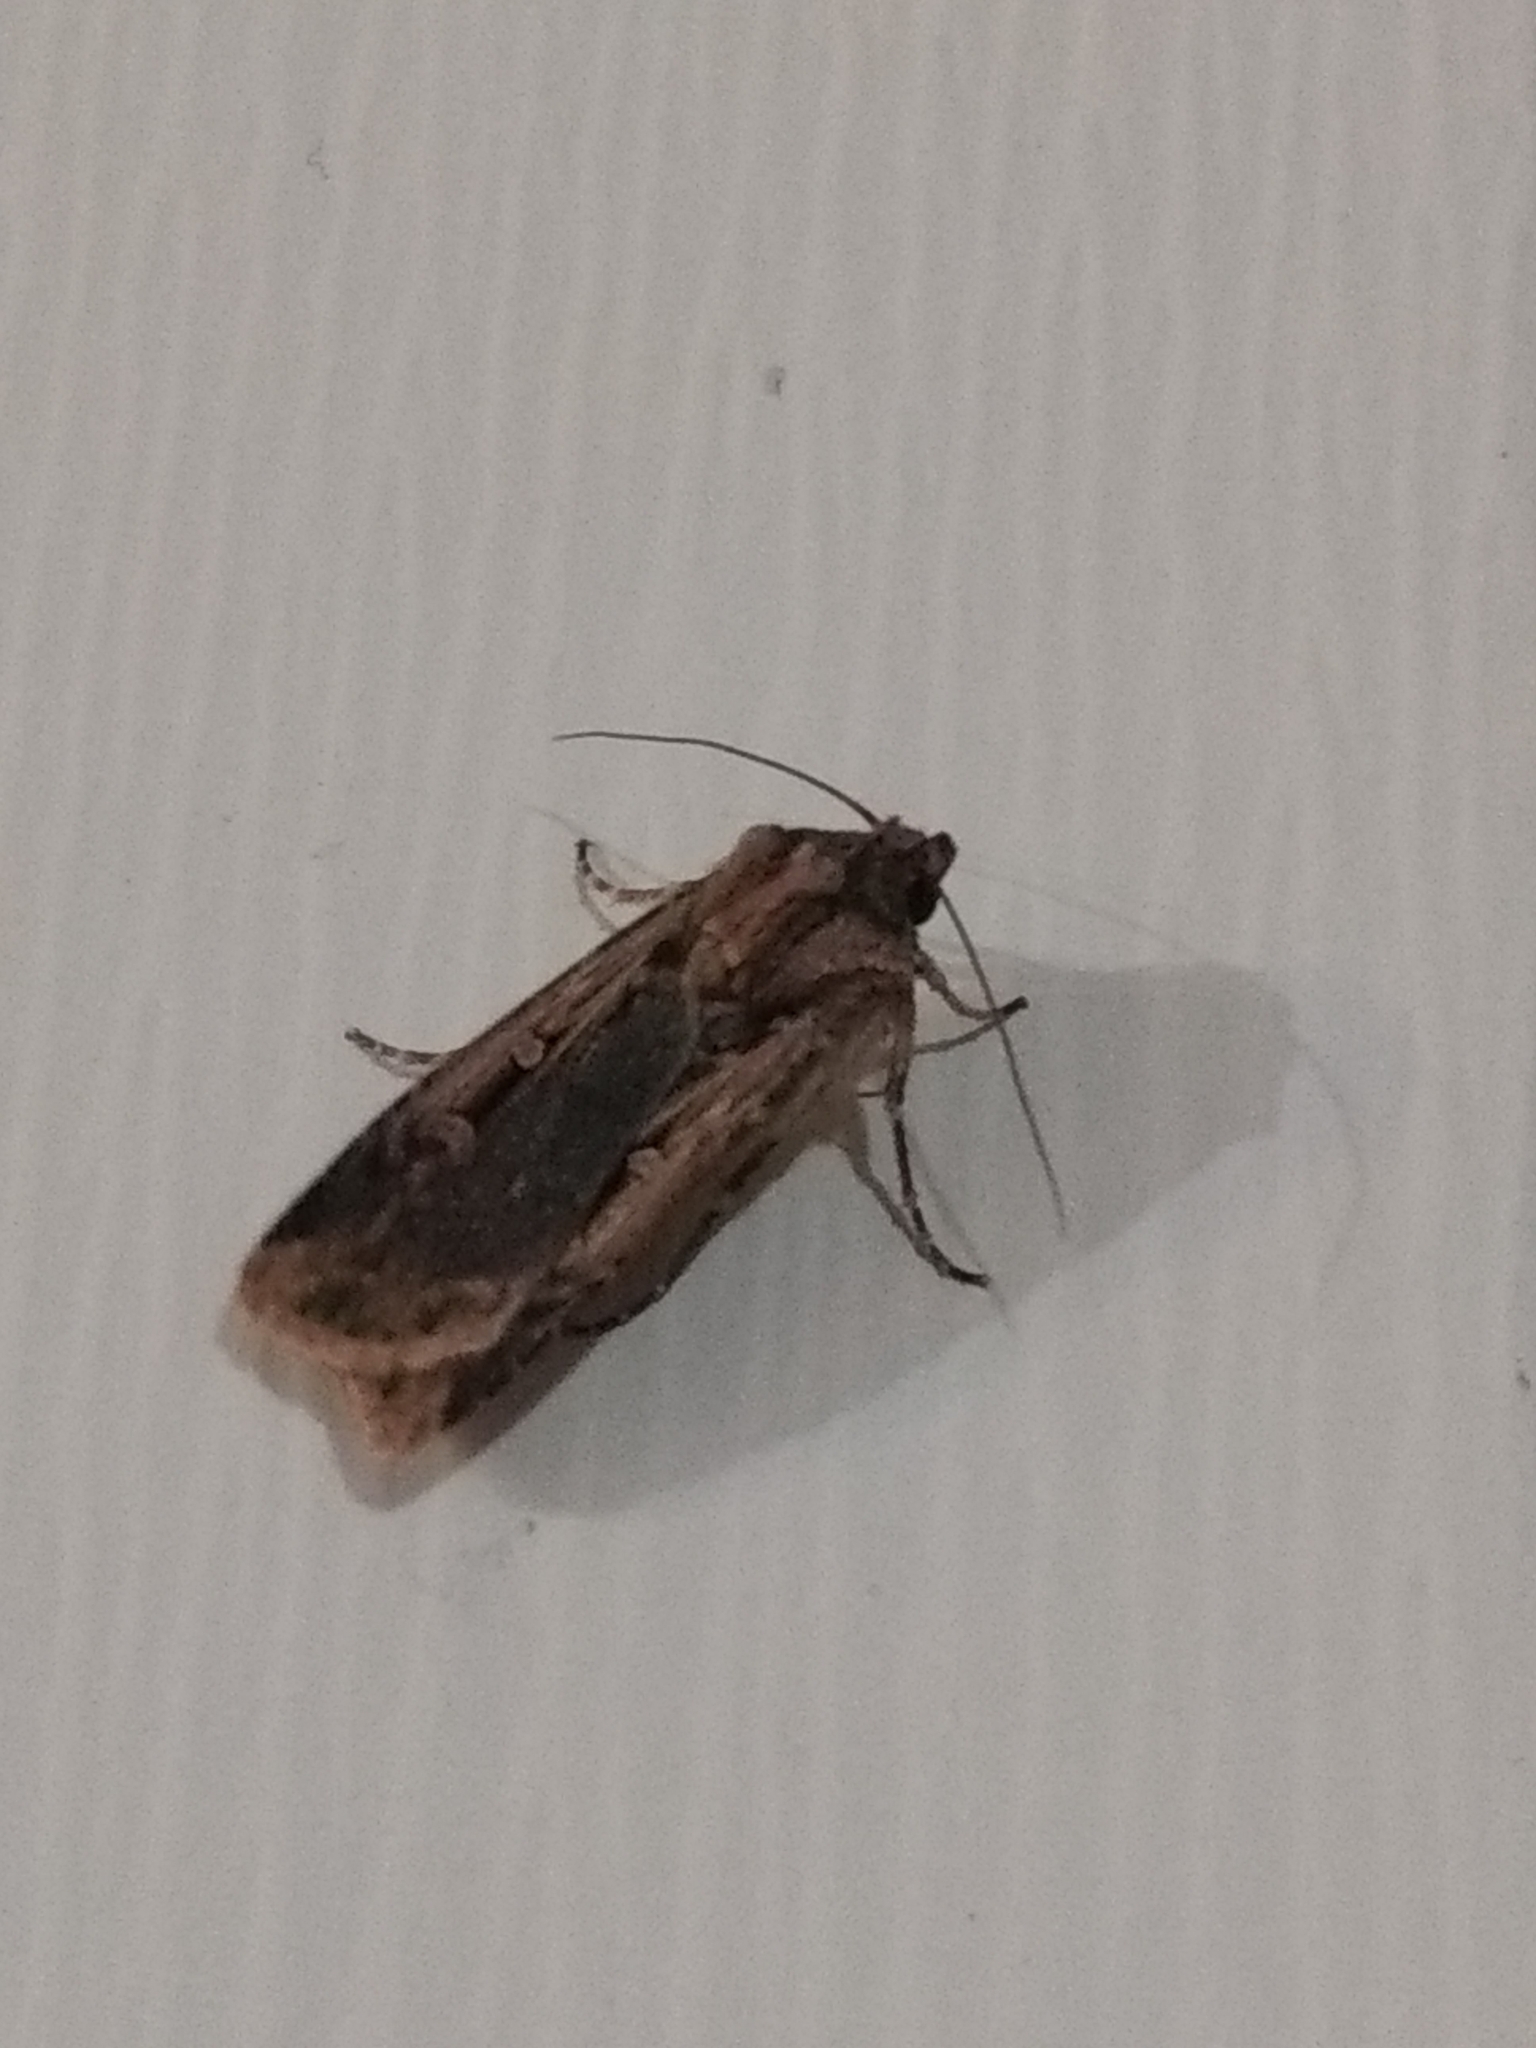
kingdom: Animalia
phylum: Arthropoda
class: Insecta
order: Lepidoptera
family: Noctuidae
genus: Feltia
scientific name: Feltia subterranea
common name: Granulate cutworm
